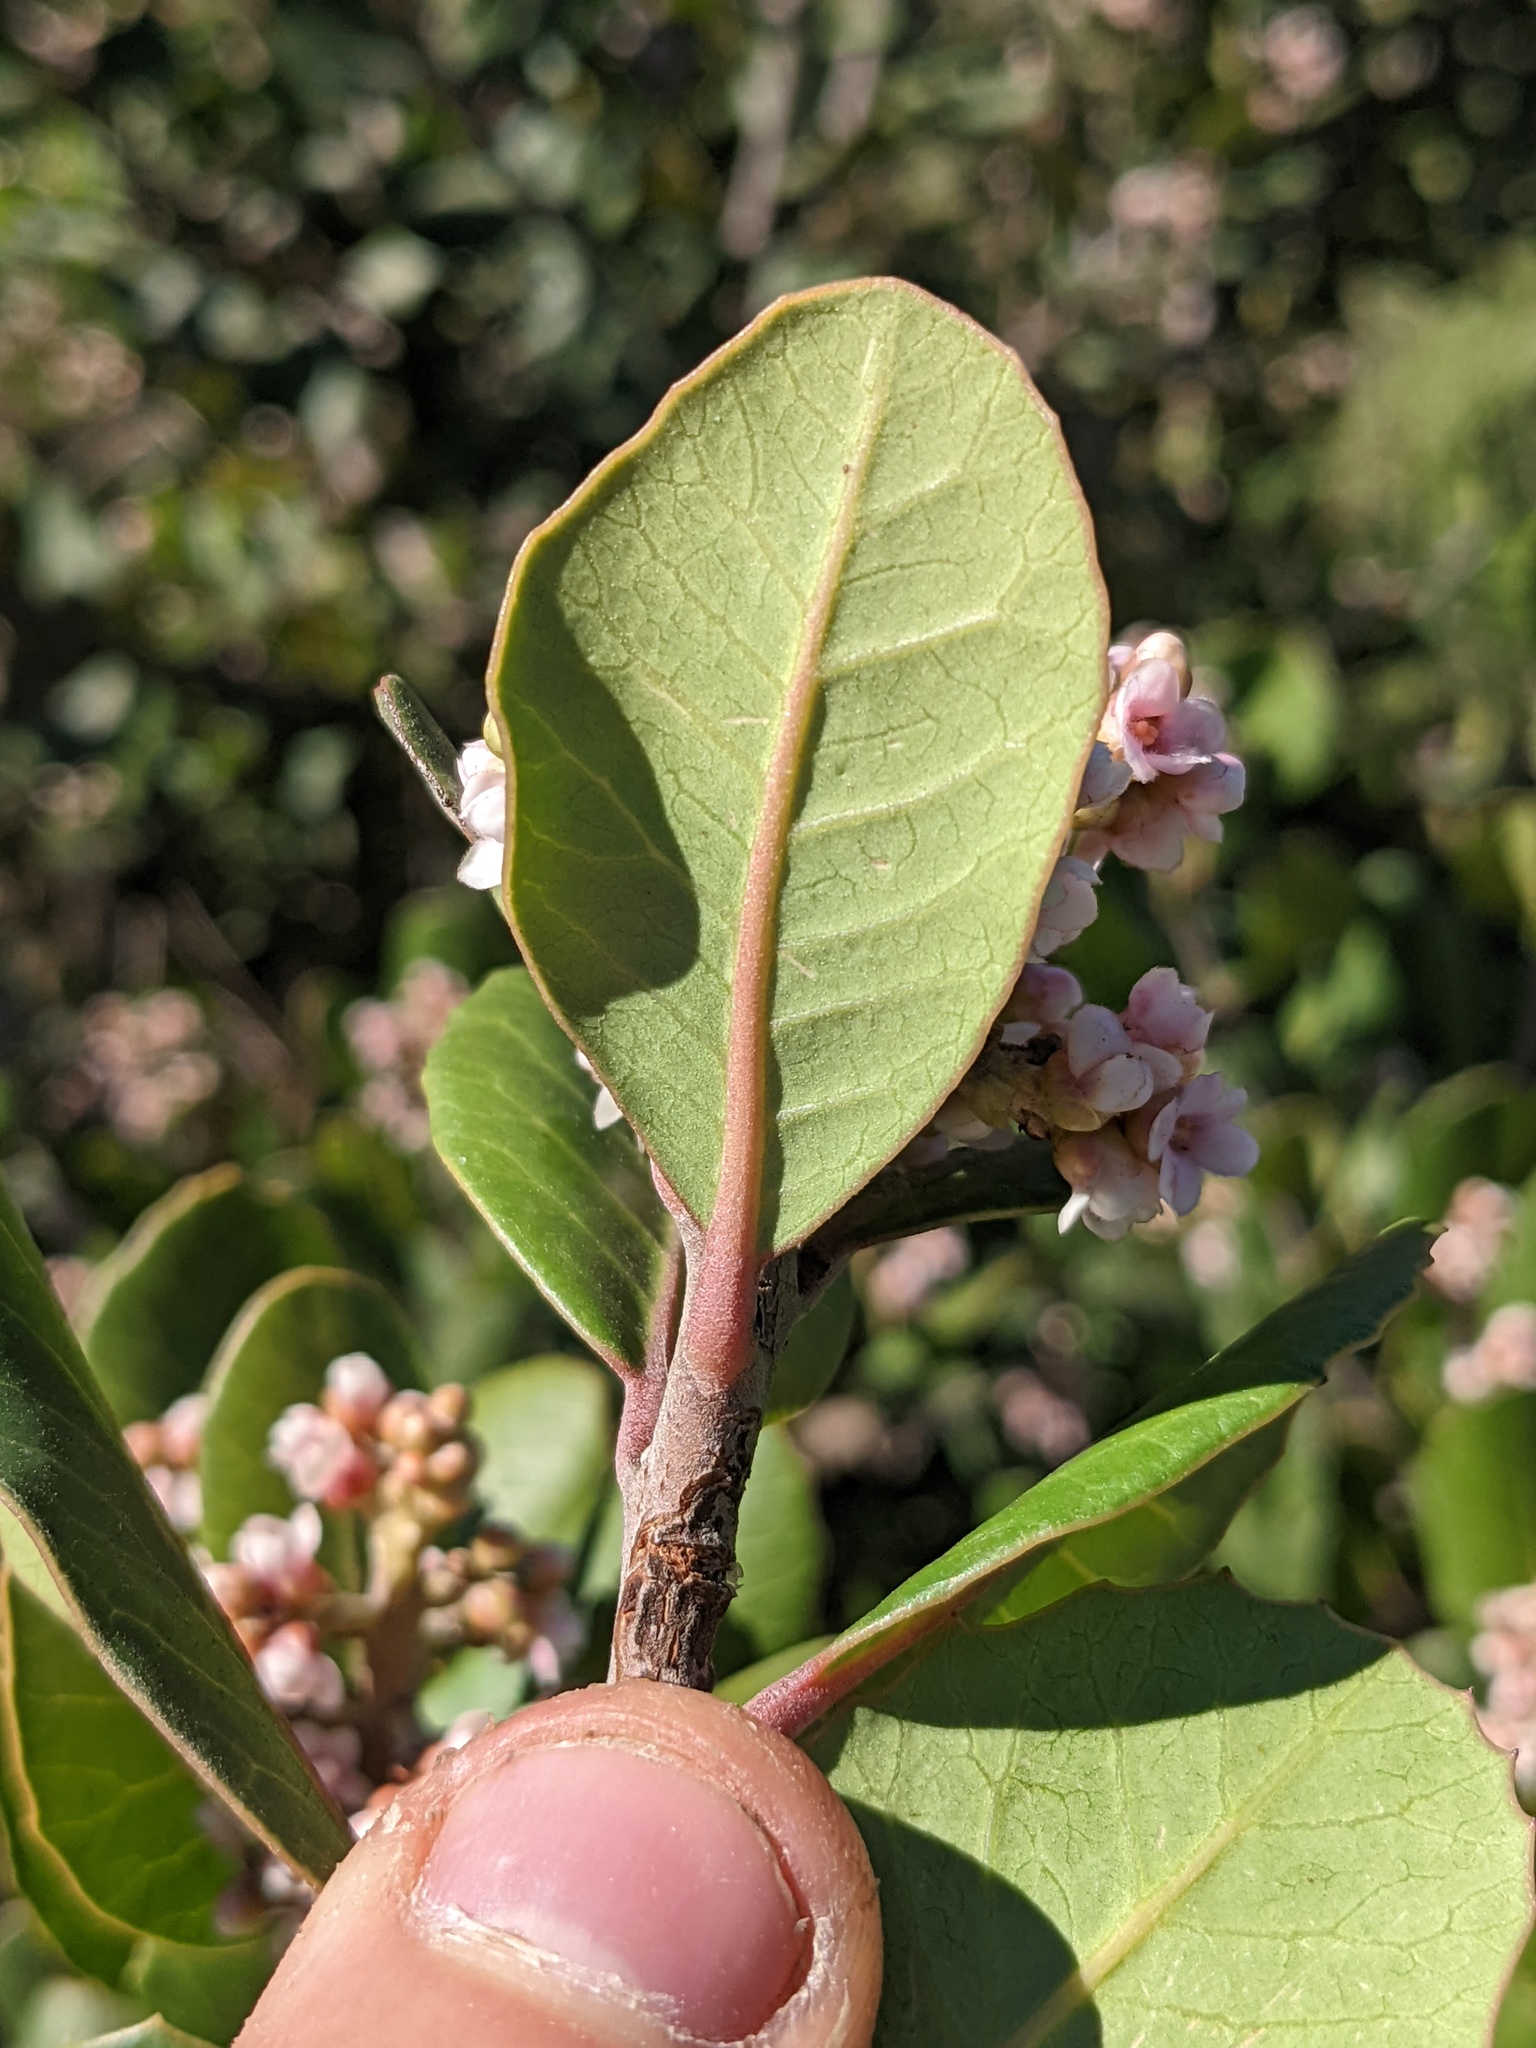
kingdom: Plantae
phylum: Tracheophyta
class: Magnoliopsida
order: Sapindales
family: Anacardiaceae
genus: Rhus
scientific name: Rhus integrifolia
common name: Lemonade sumac
